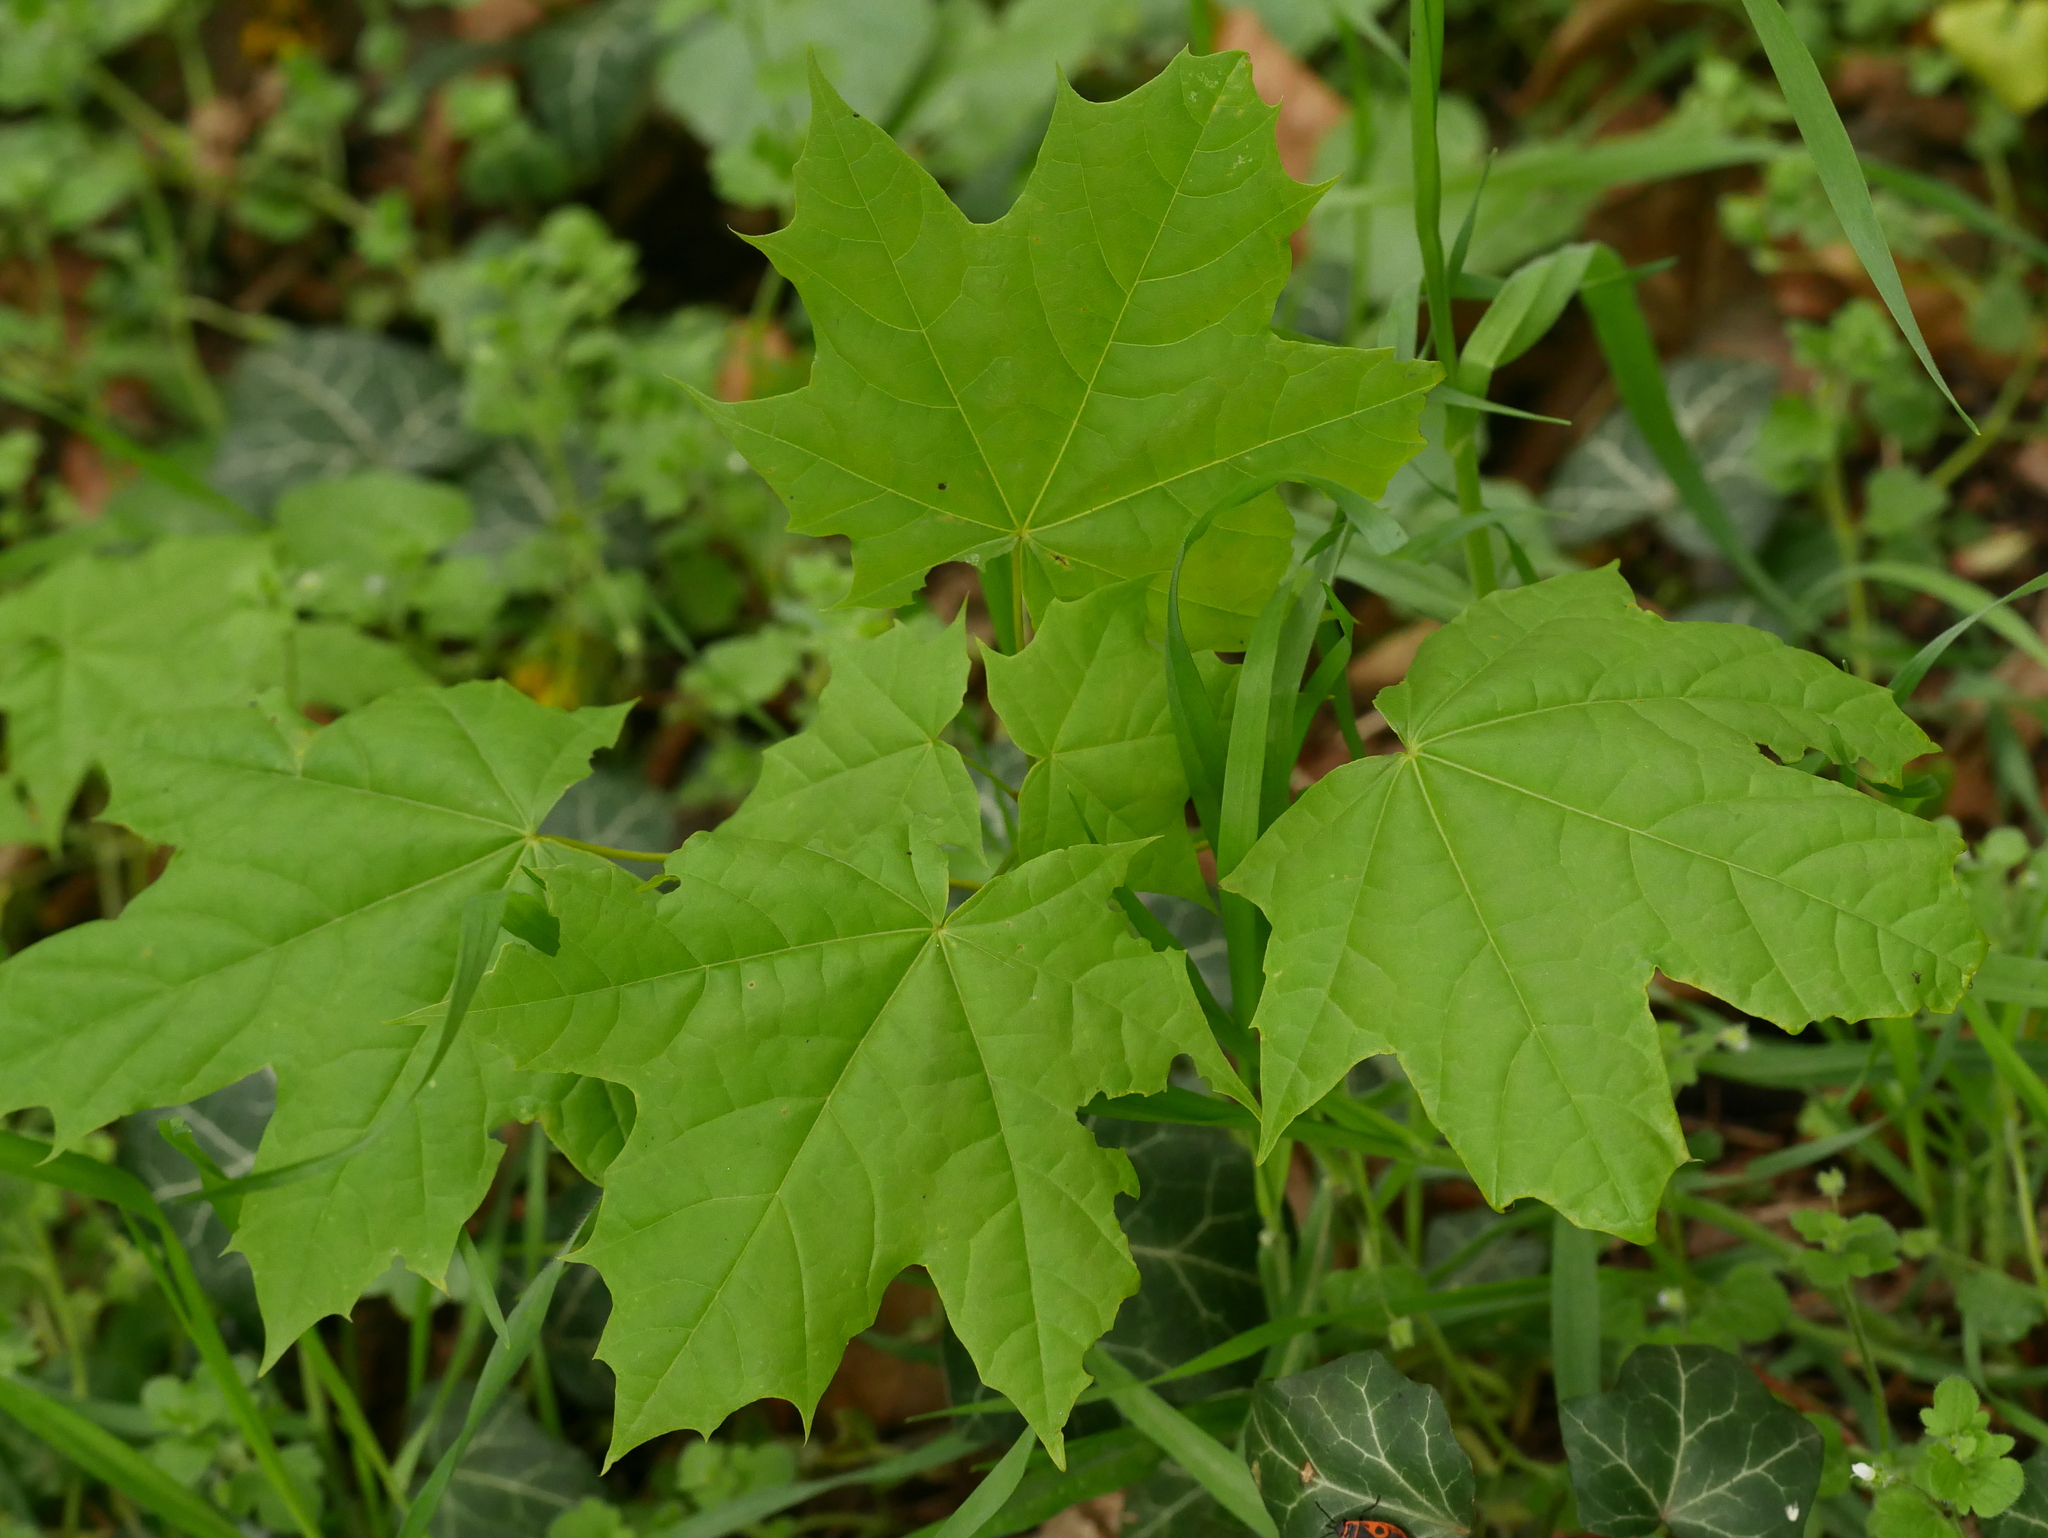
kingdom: Plantae
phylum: Tracheophyta
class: Magnoliopsida
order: Sapindales
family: Sapindaceae
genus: Acer
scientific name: Acer platanoides
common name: Norway maple
